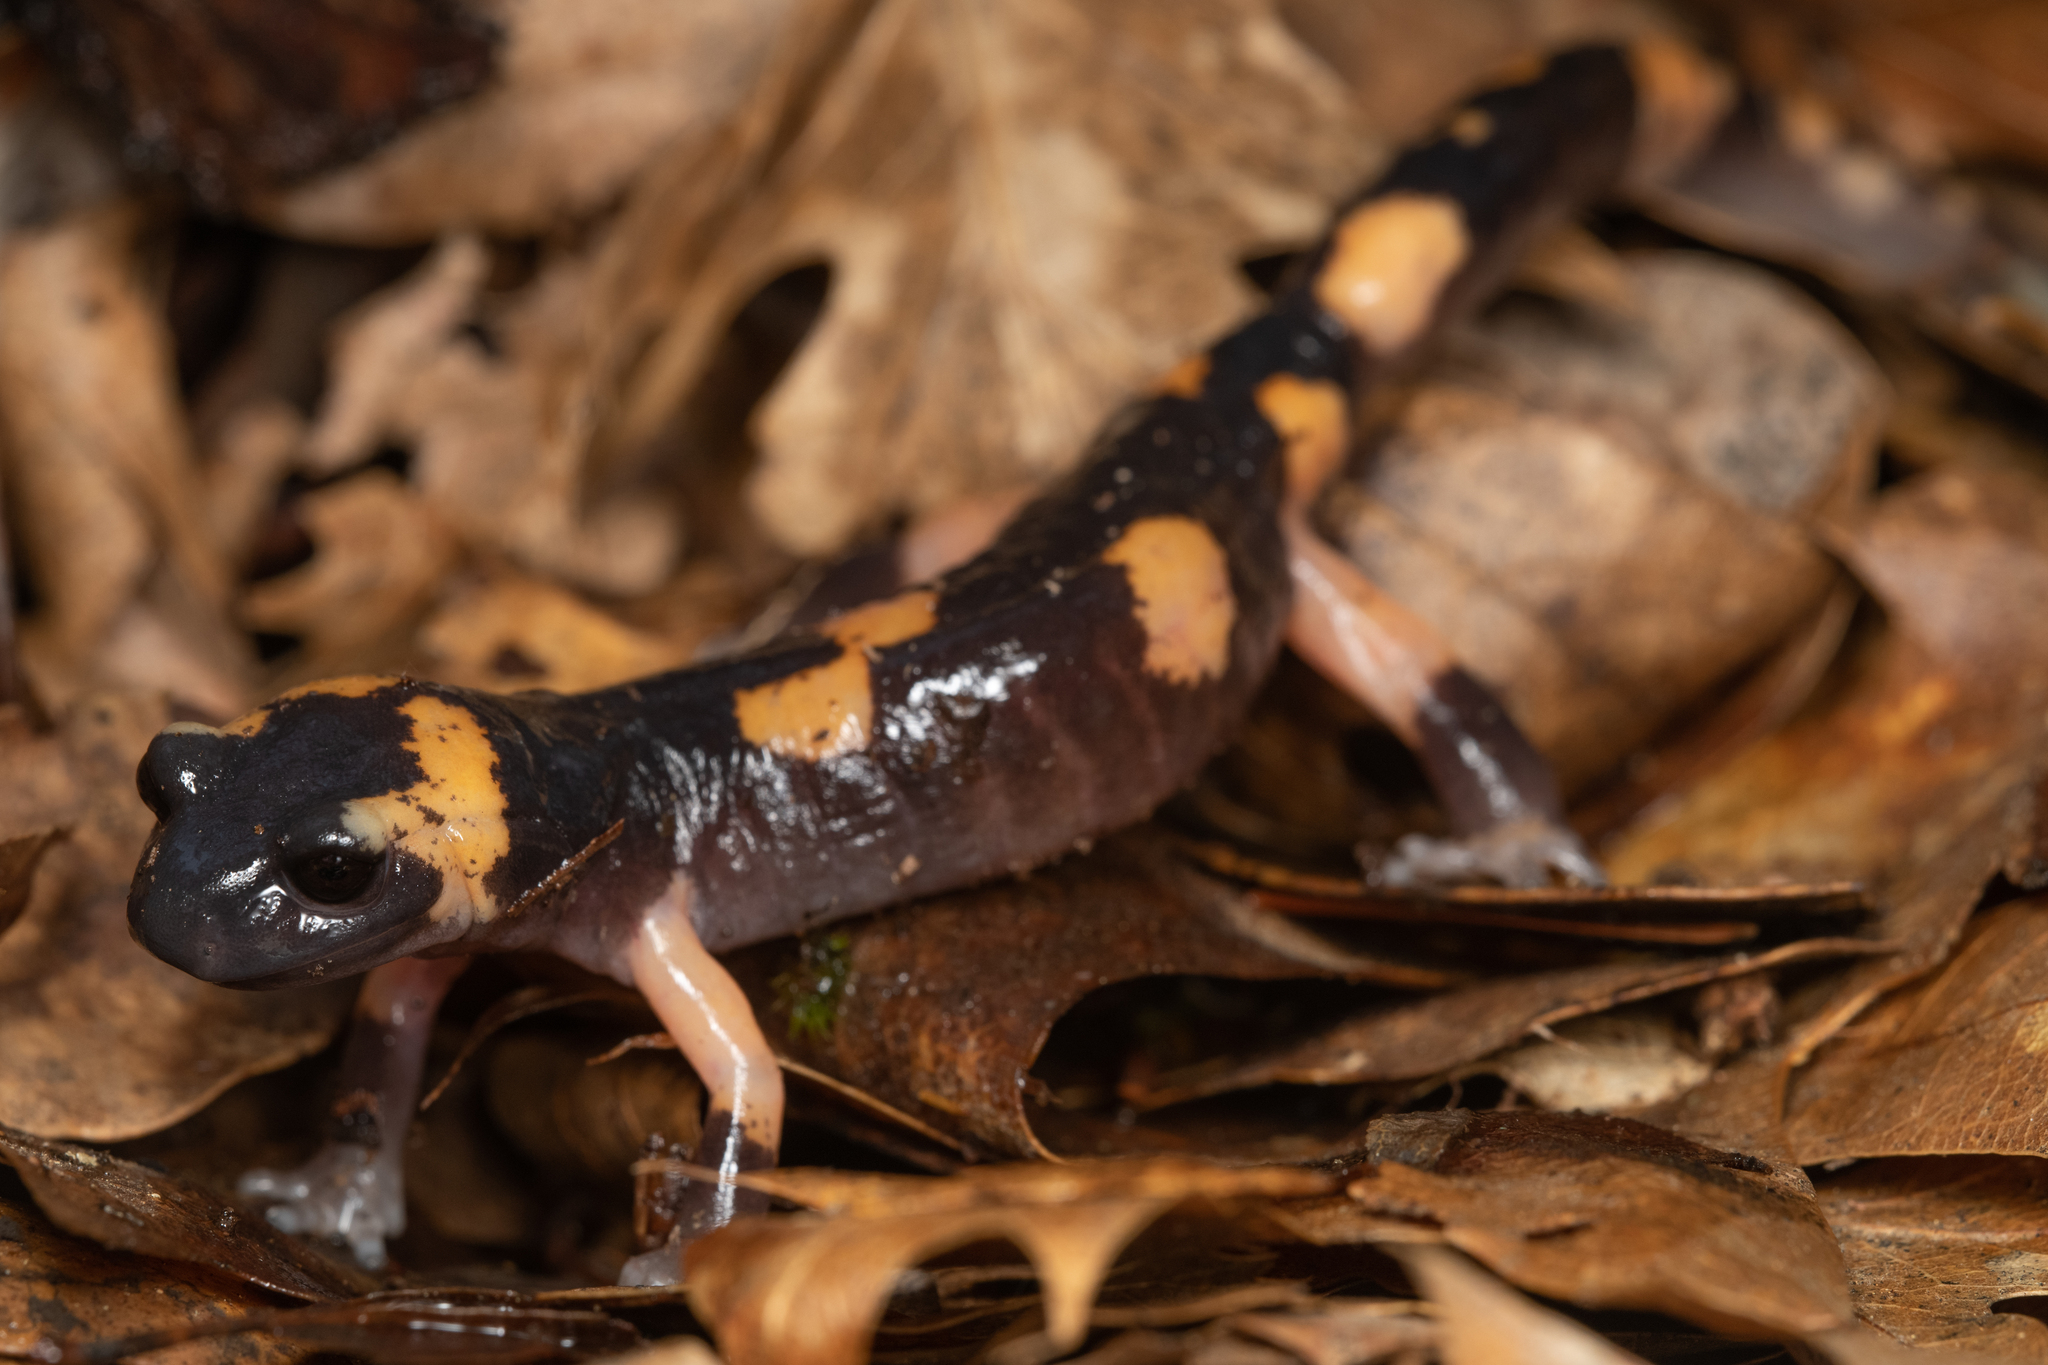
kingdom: Animalia
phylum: Chordata
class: Amphibia
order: Caudata
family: Plethodontidae
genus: Ensatina
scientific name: Ensatina eschscholtzii
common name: Ensatina
